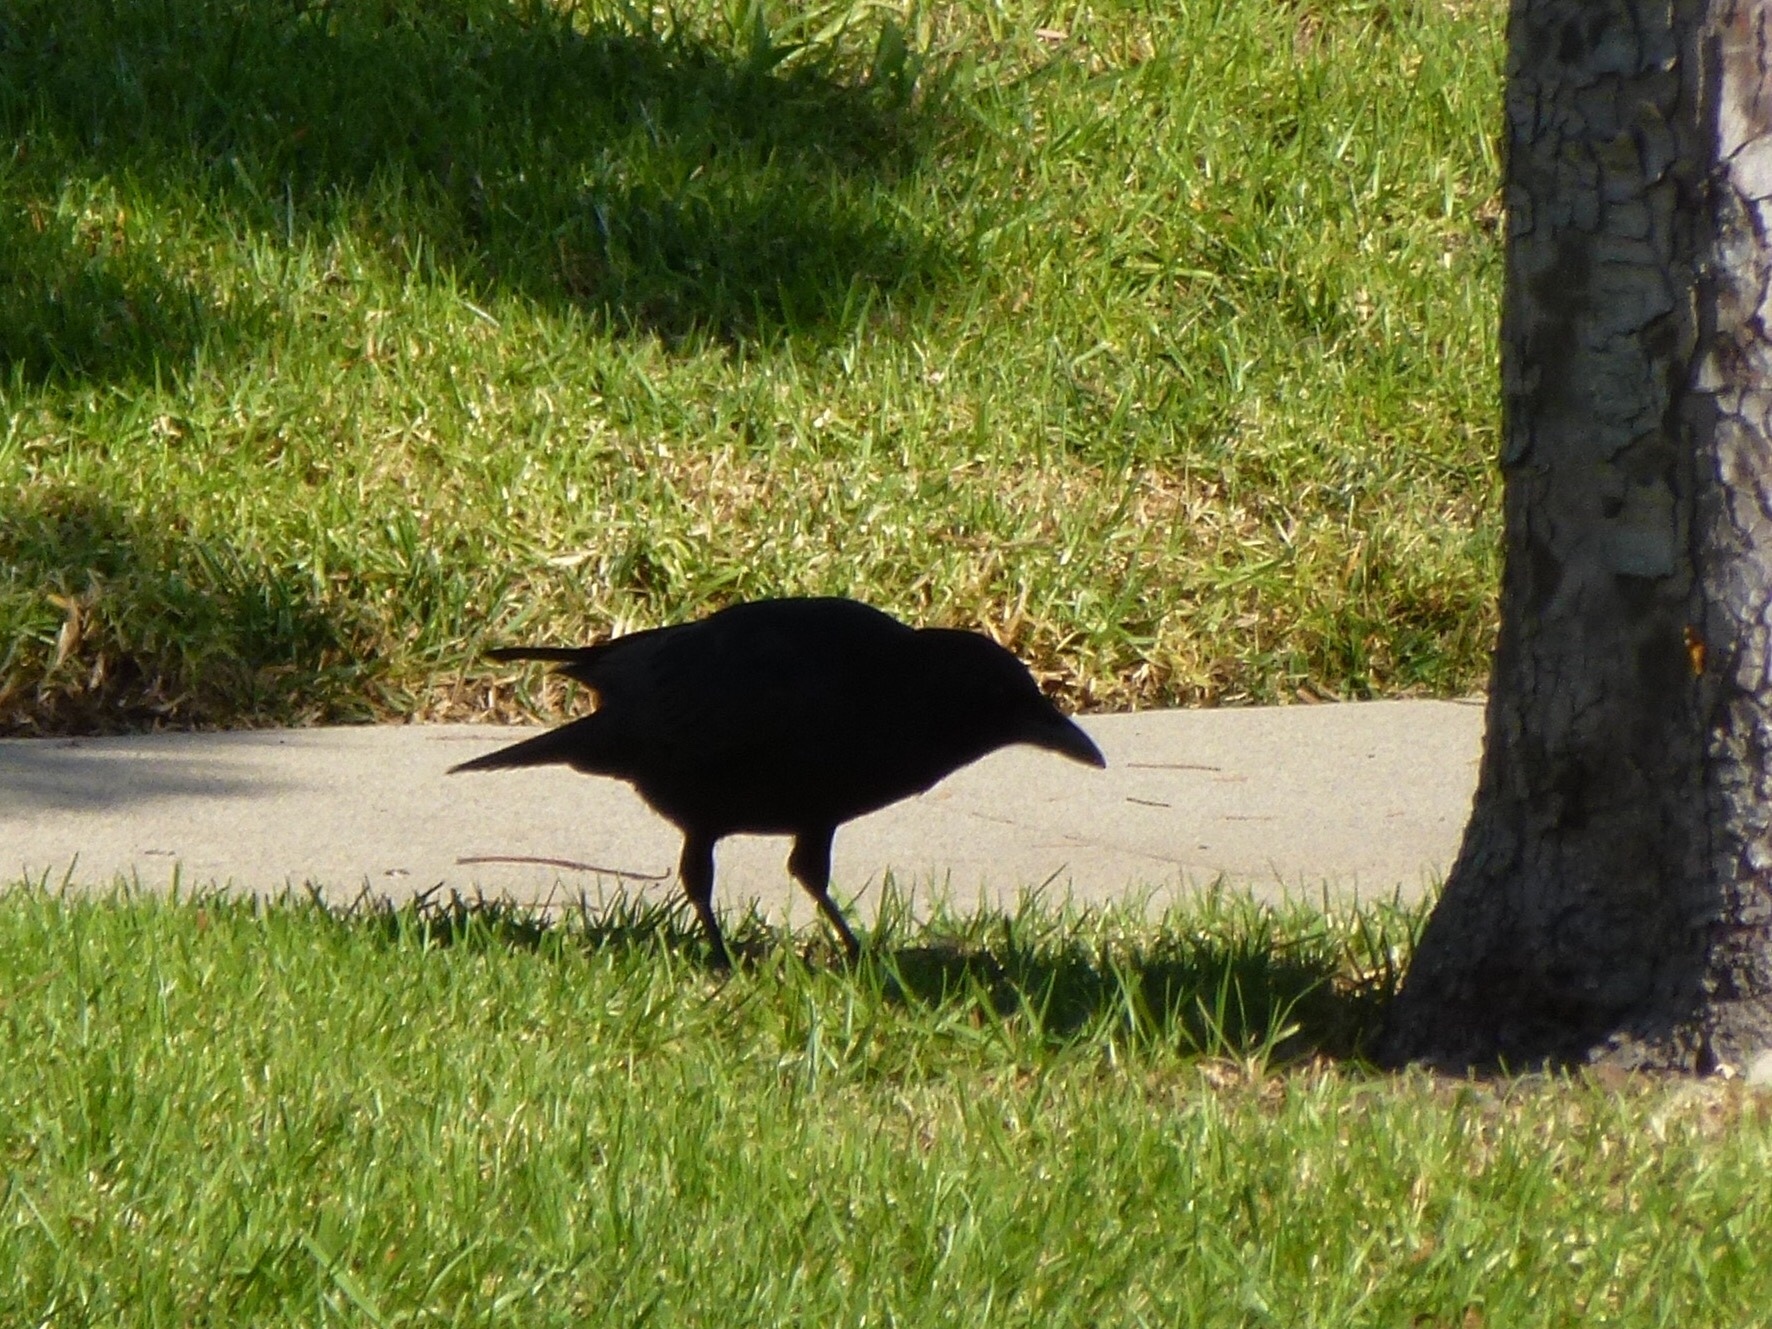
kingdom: Animalia
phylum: Chordata
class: Aves
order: Passeriformes
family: Corvidae
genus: Corvus
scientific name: Corvus brachyrhynchos
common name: American crow
